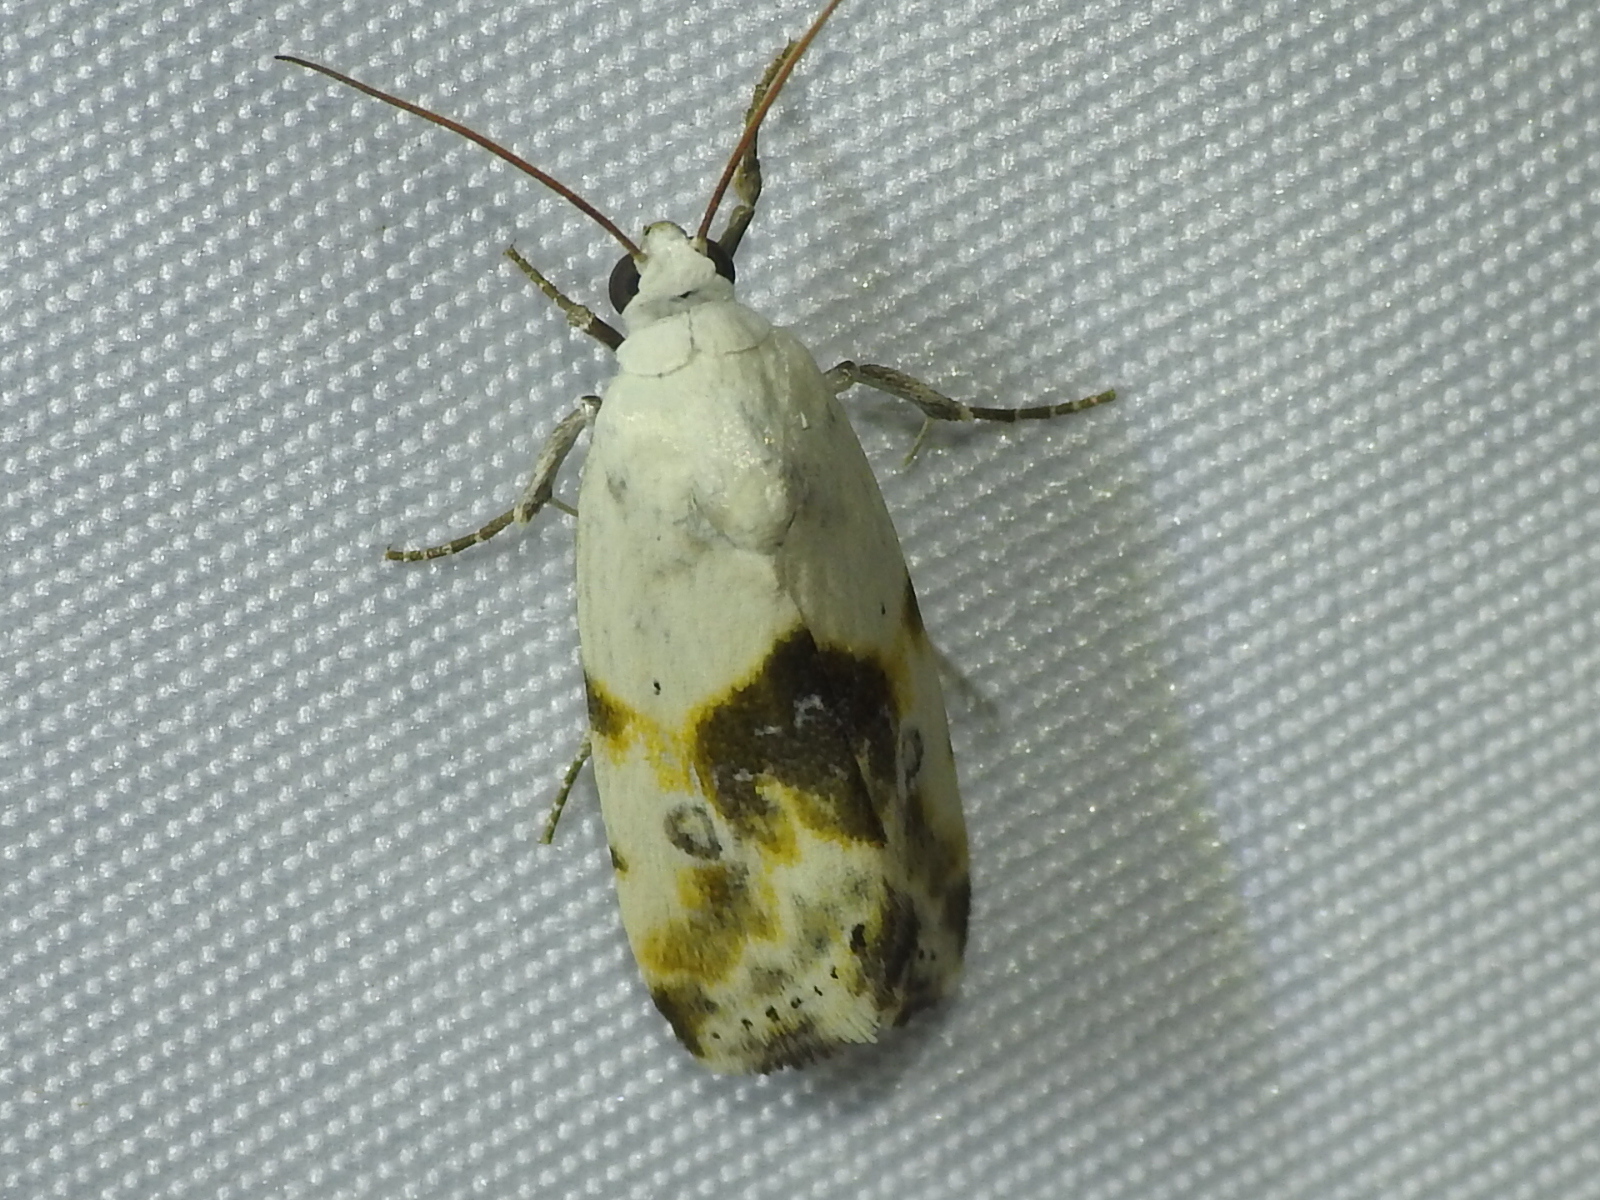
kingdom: Animalia
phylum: Arthropoda
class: Insecta
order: Lepidoptera
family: Noctuidae
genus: Acontia
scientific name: Acontia candefacta
